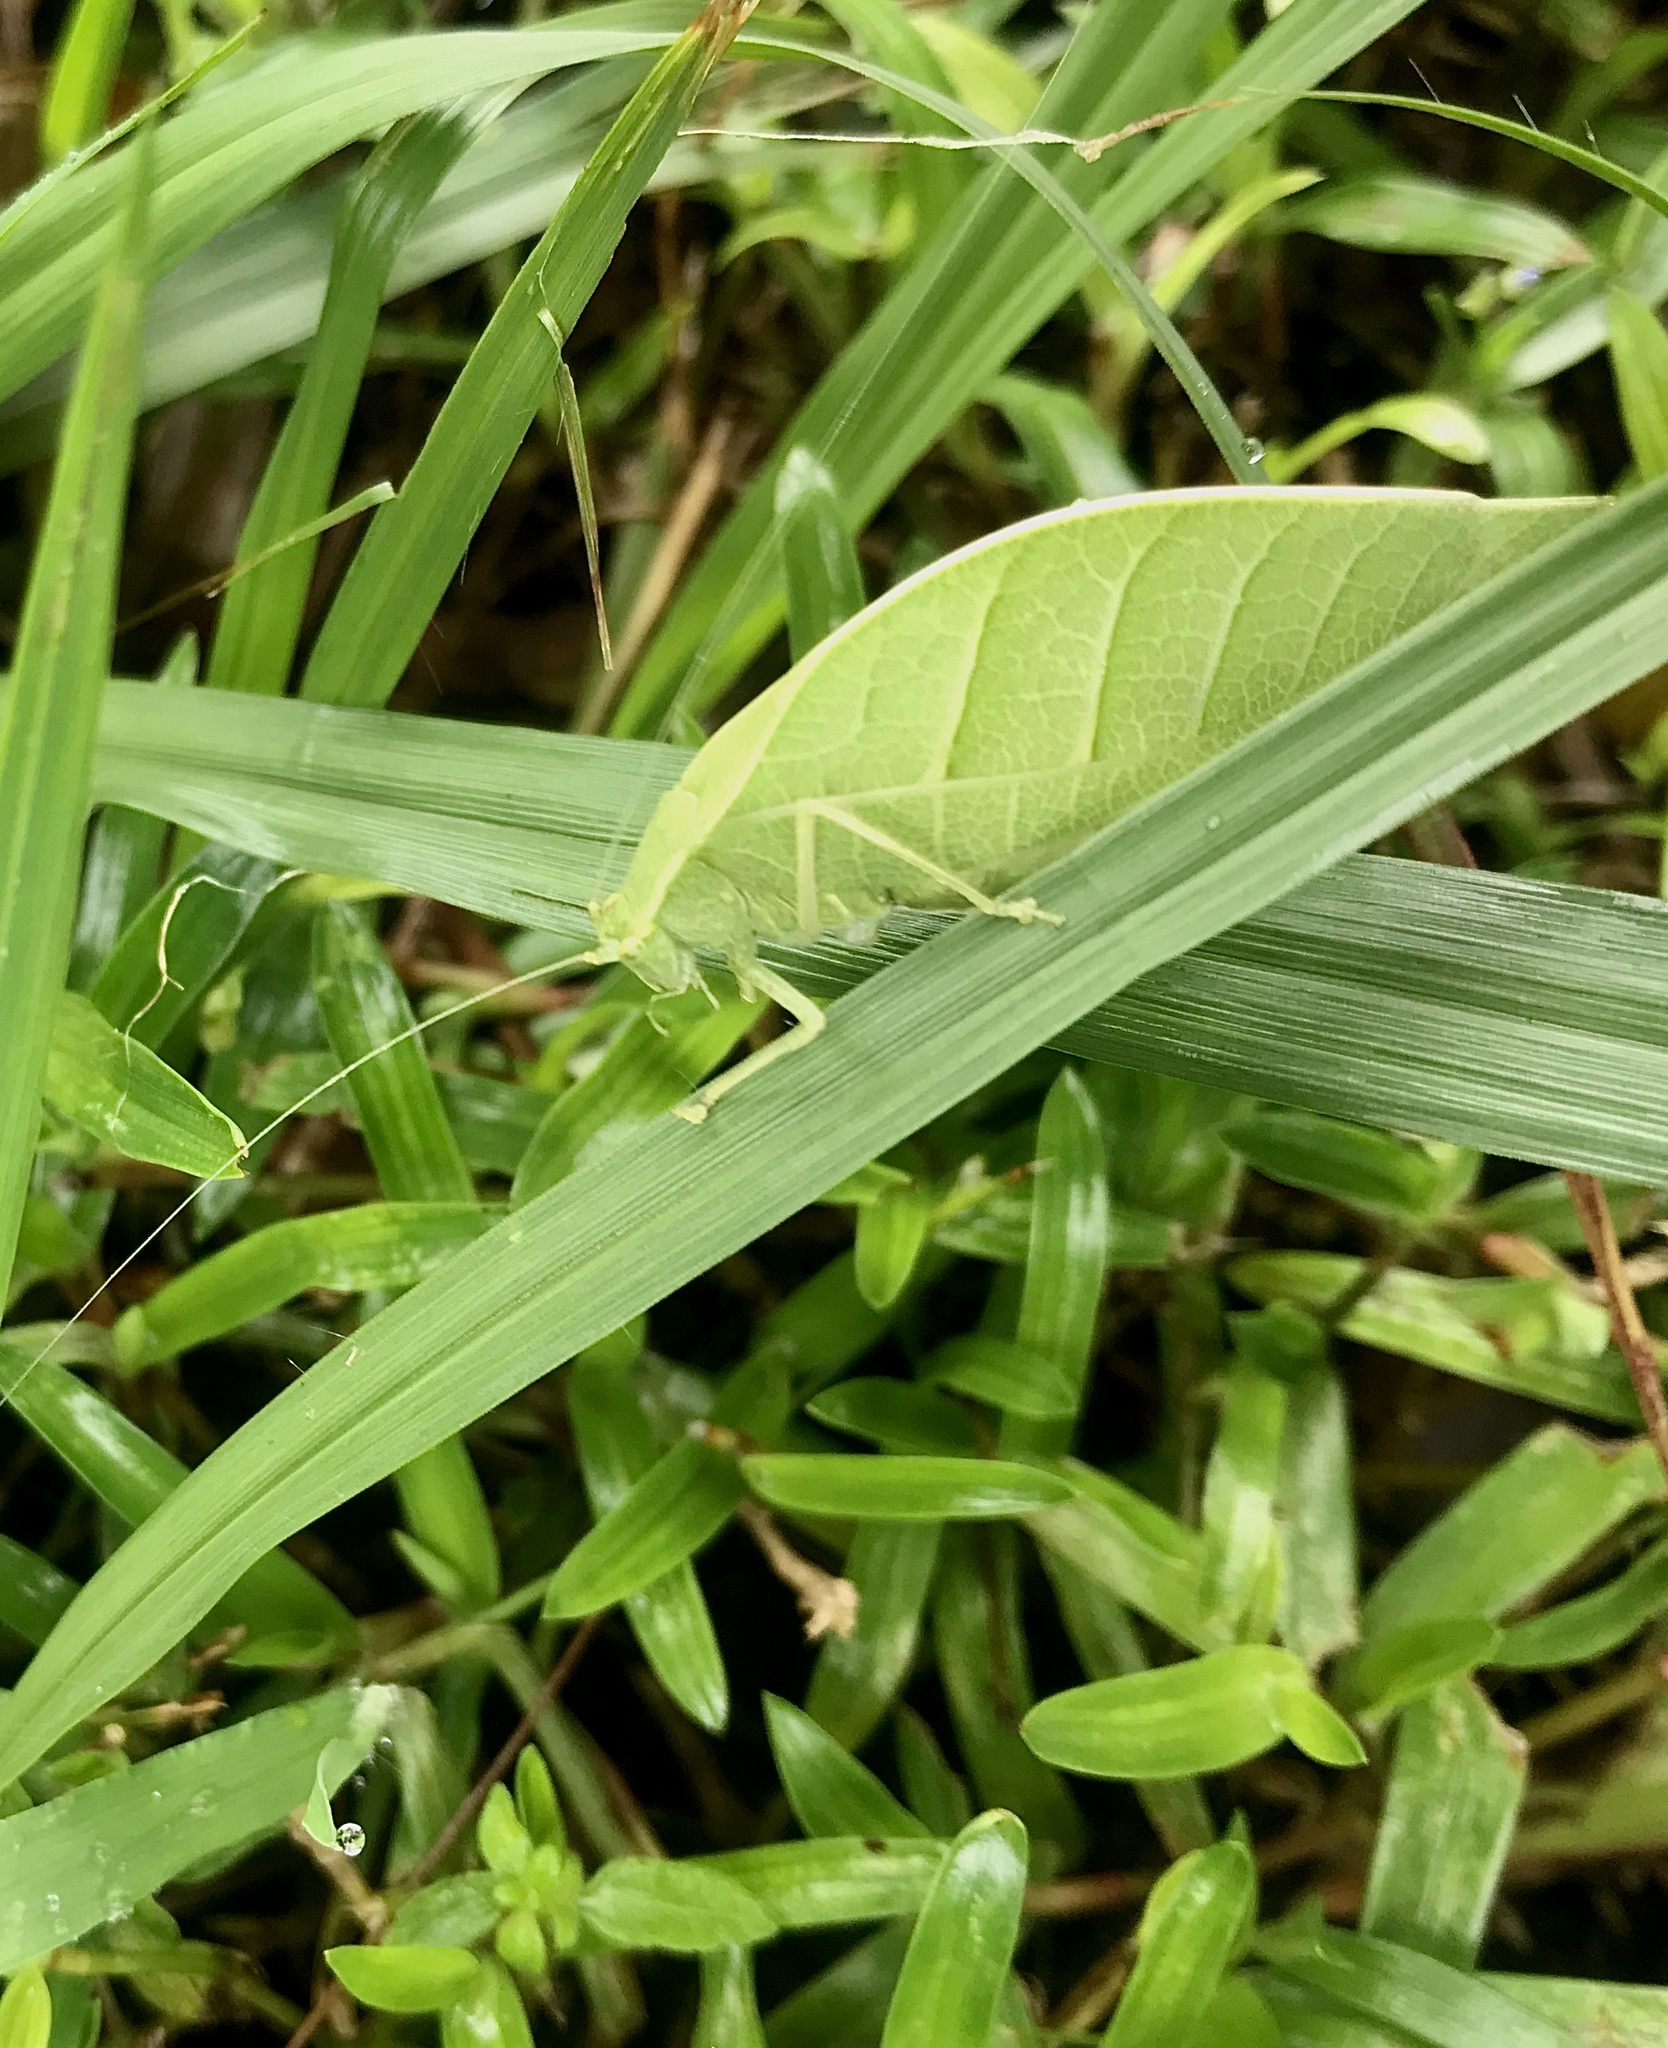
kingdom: Animalia
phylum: Arthropoda
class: Insecta
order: Orthoptera
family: Tettigoniidae
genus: Arota
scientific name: Arota panamae
